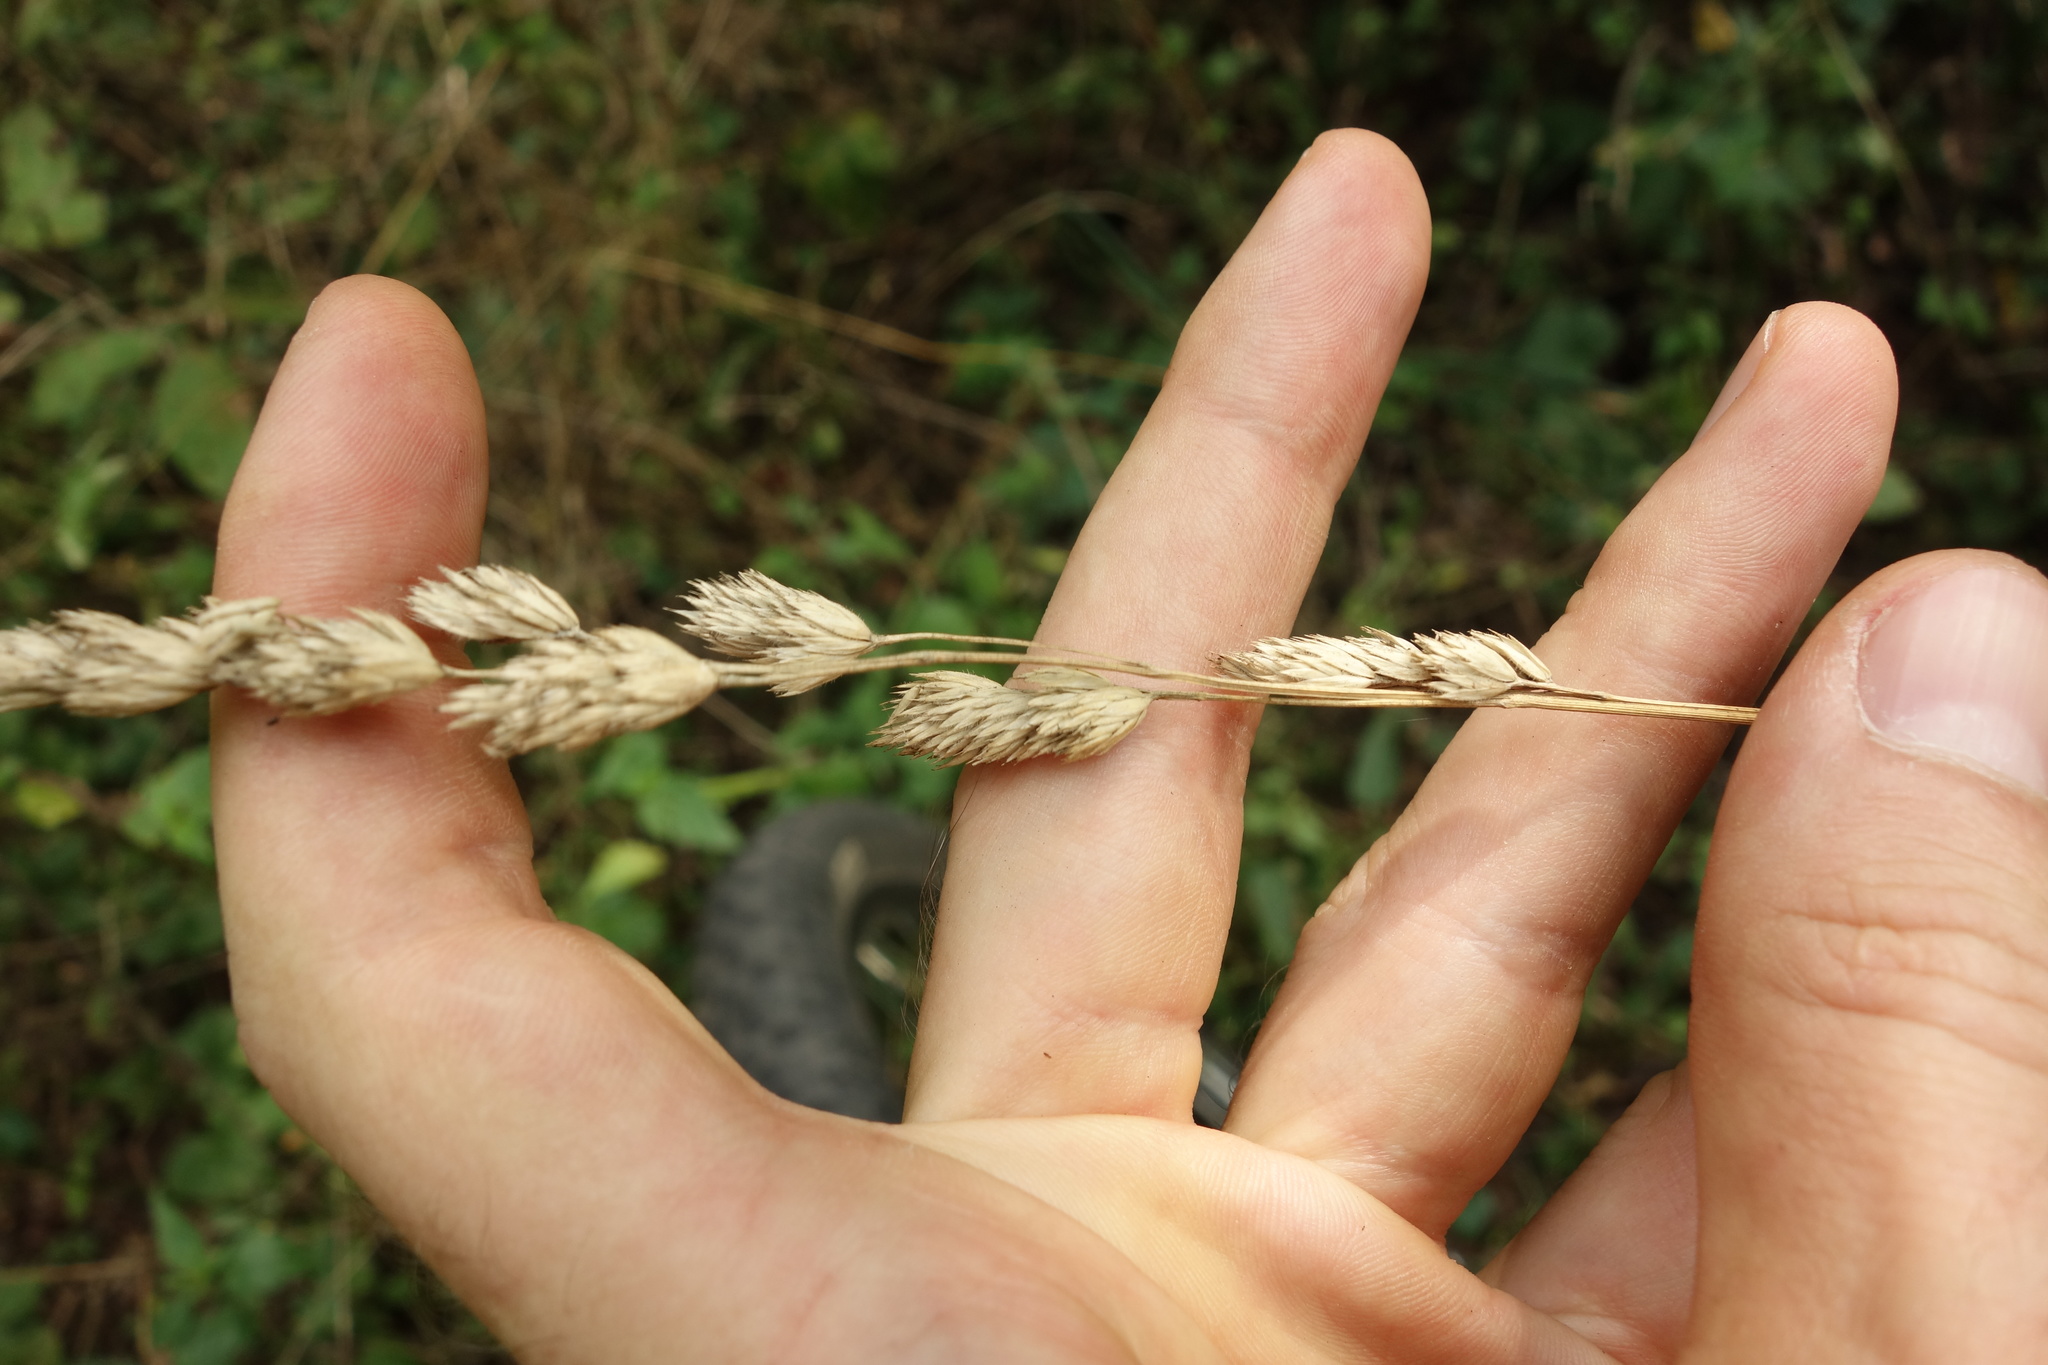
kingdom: Plantae
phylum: Tracheophyta
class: Liliopsida
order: Poales
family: Poaceae
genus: Dactylis
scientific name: Dactylis glomerata
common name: Orchardgrass
